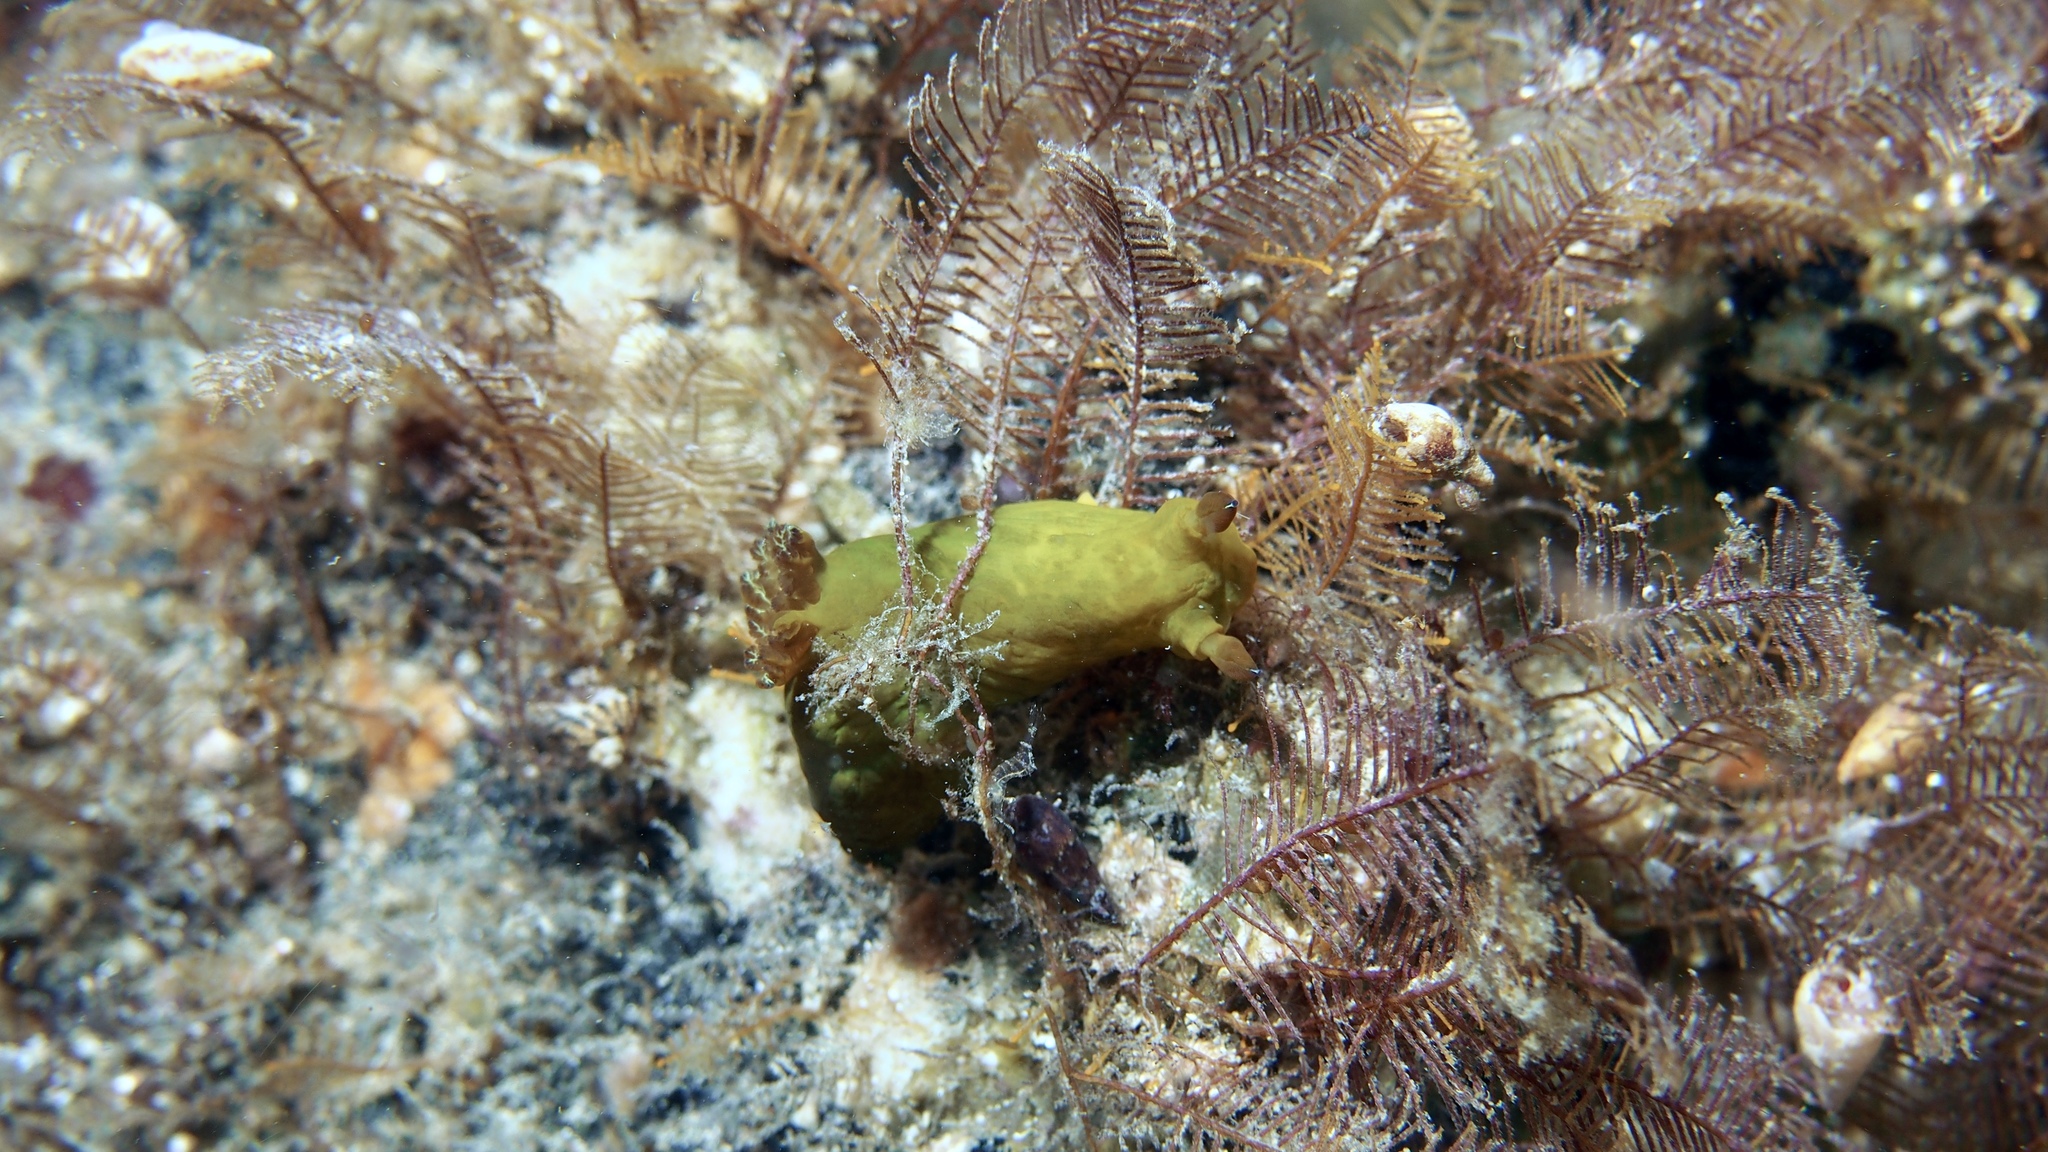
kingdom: Animalia
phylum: Mollusca
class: Gastropoda
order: Nudibranchia
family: Polyceridae
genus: Tambja
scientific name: Tambja dracomus
